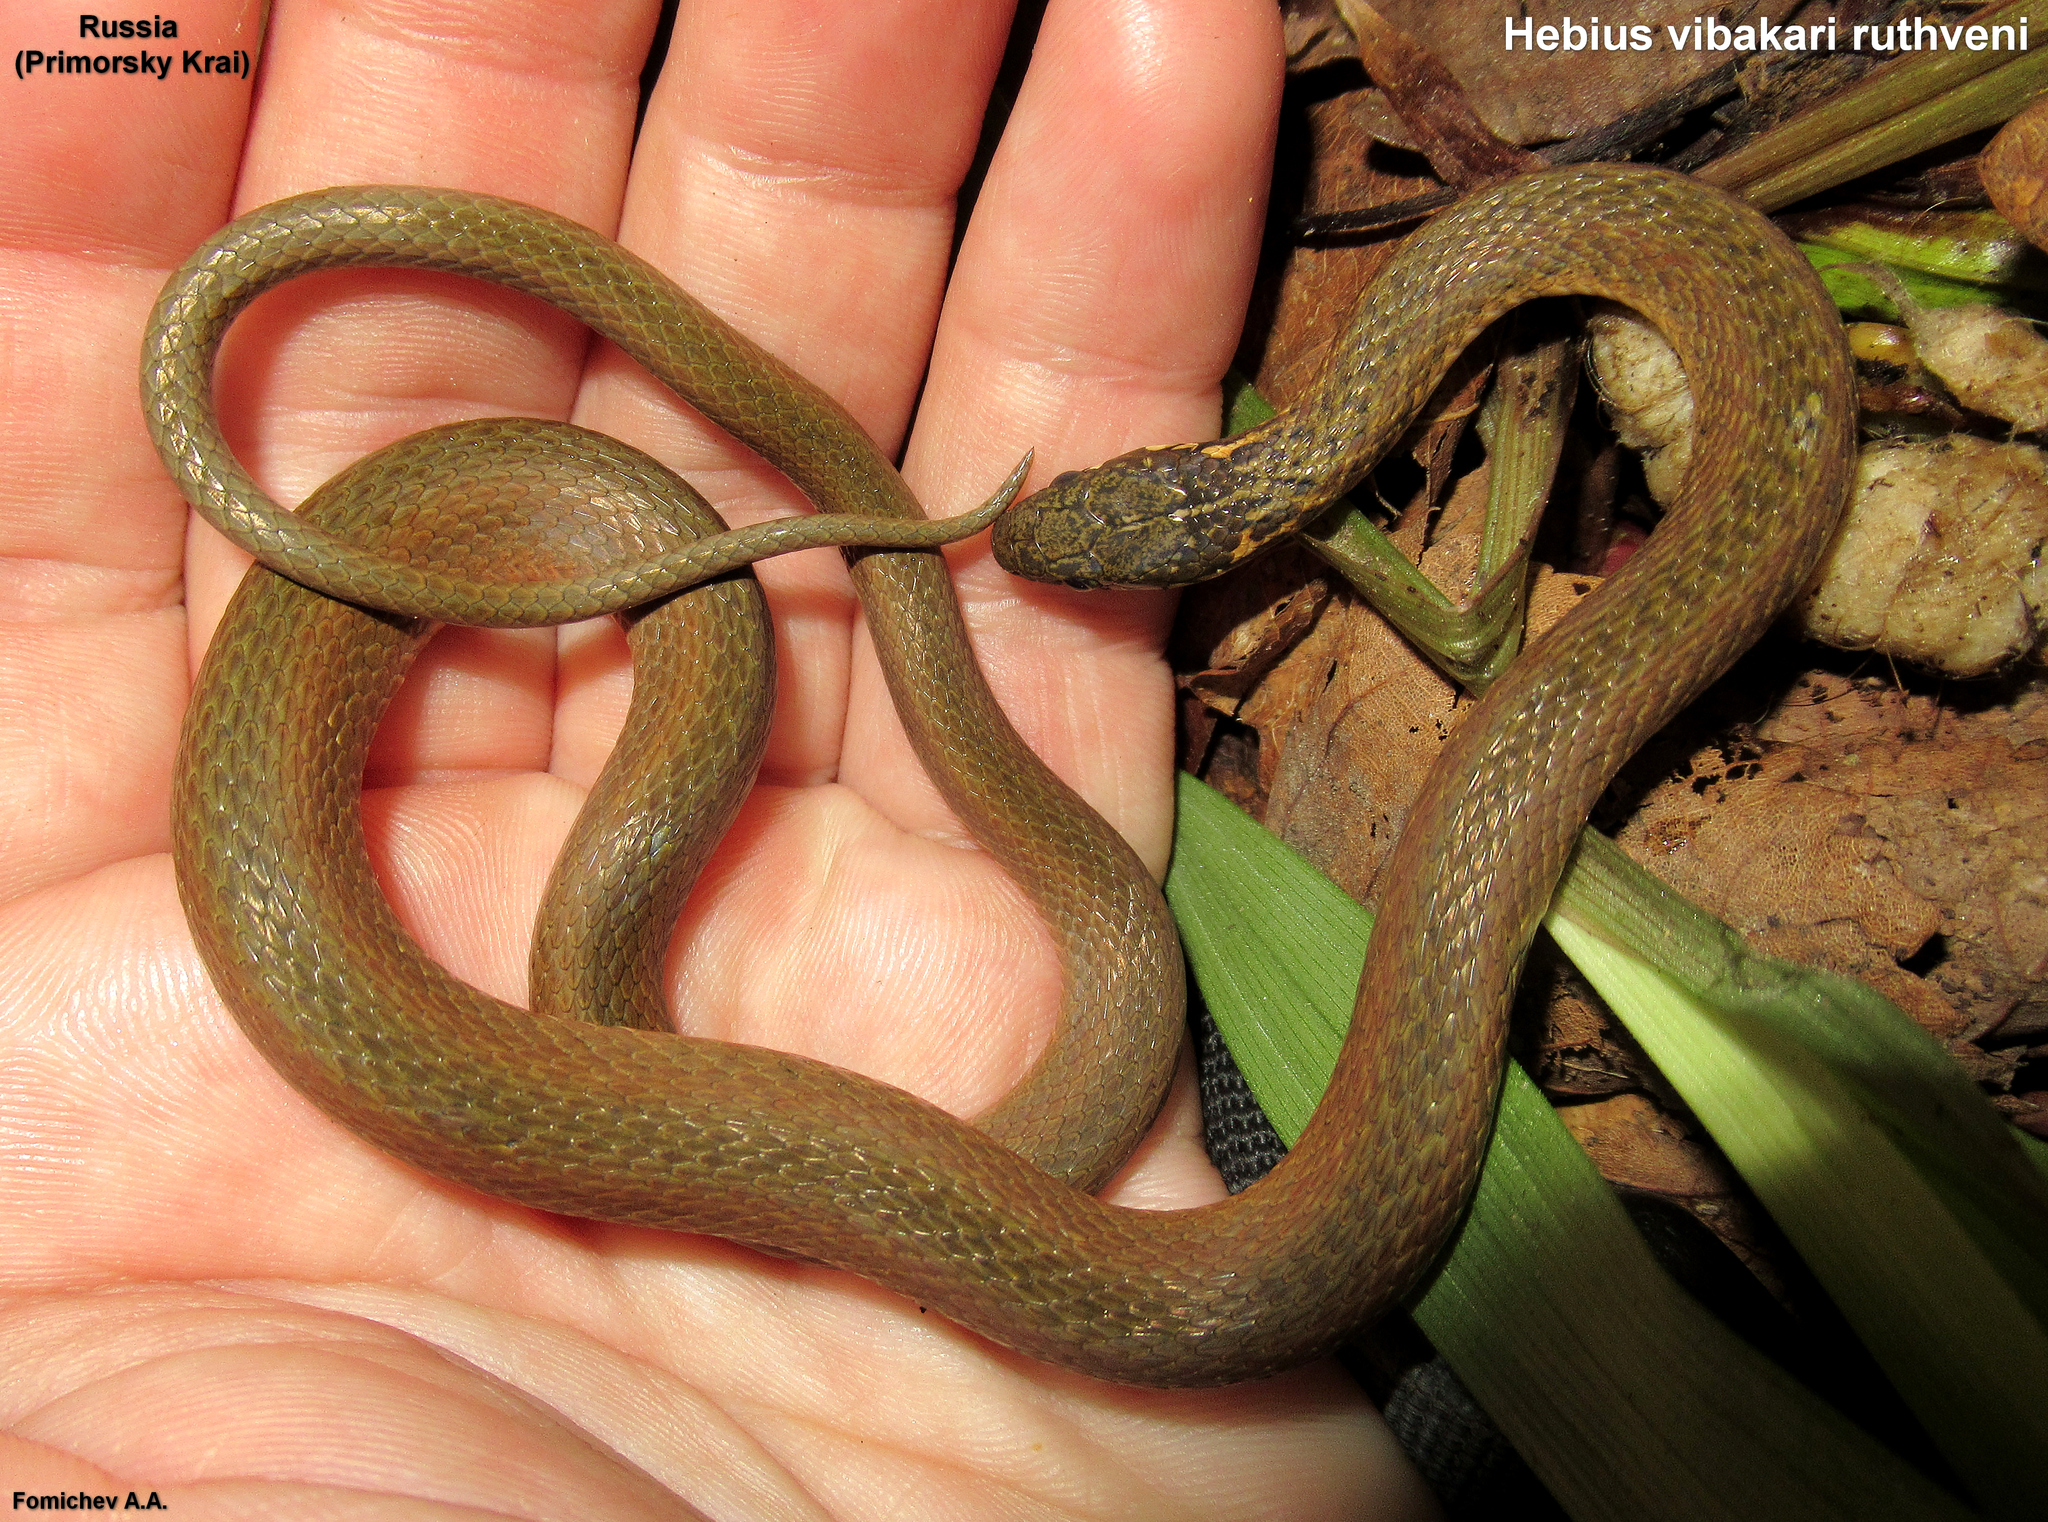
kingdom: Animalia
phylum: Chordata
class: Squamata
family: Colubridae
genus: Hebius
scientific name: Hebius vibakari
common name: Japanese keelback
